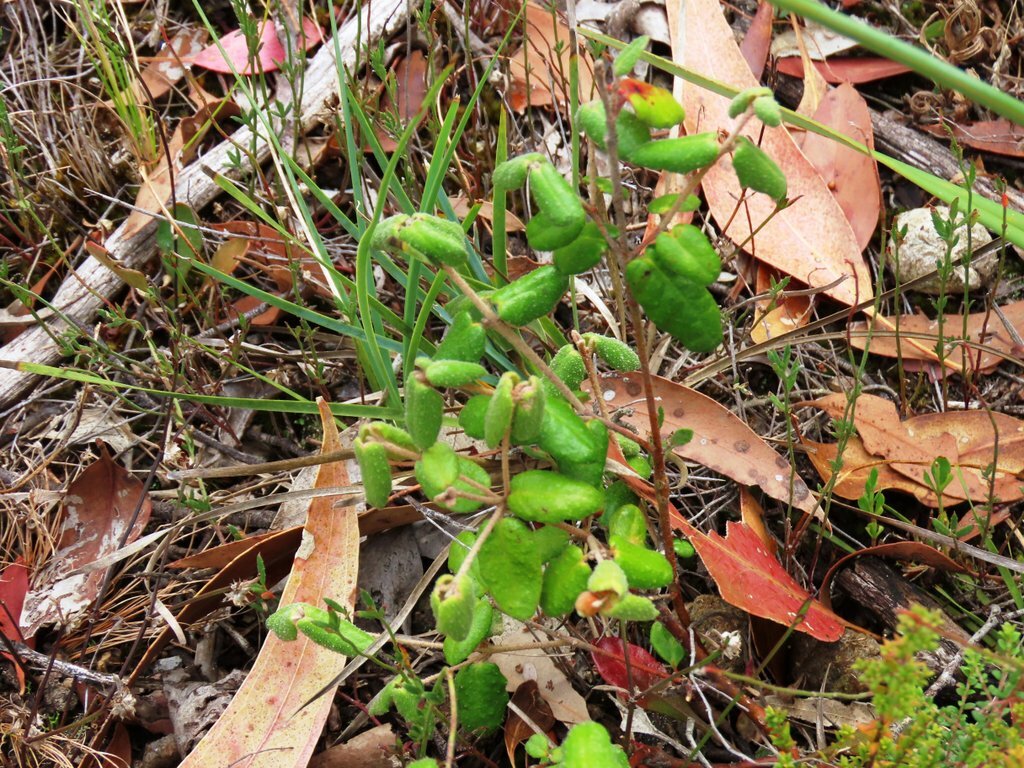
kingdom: Plantae
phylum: Tracheophyta
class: Magnoliopsida
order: Sapindales
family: Rutaceae
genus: Correa
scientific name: Correa reflexa
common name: Common correa
